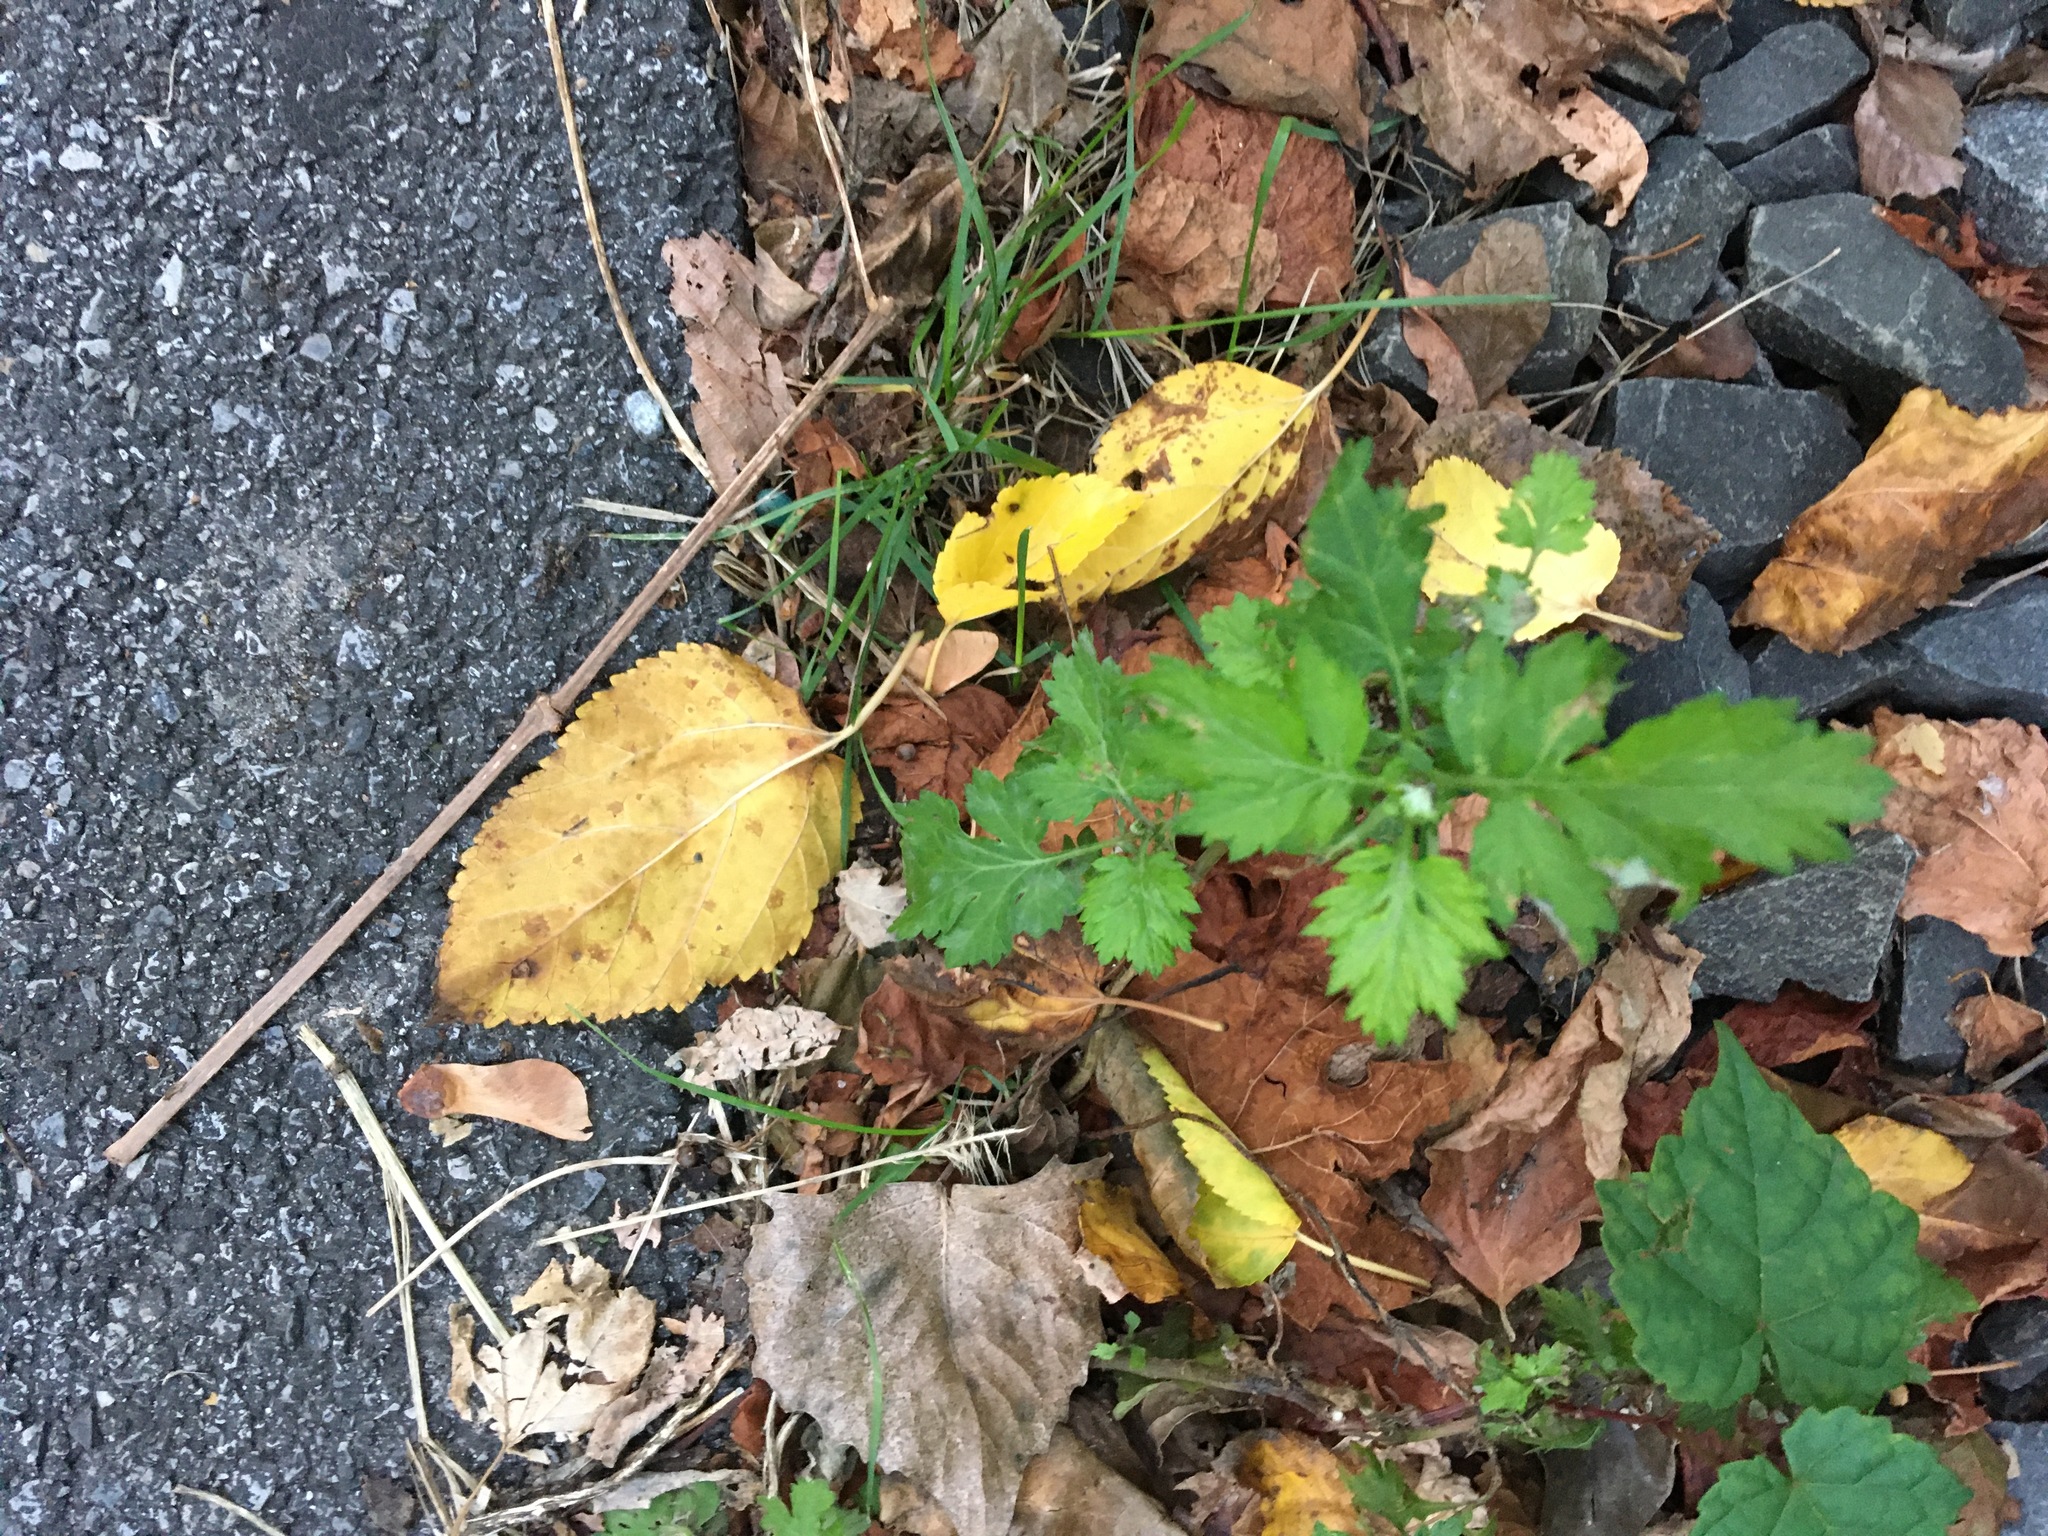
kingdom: Plantae
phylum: Tracheophyta
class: Magnoliopsida
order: Asterales
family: Asteraceae
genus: Artemisia
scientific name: Artemisia vulgaris
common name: Mugwort
